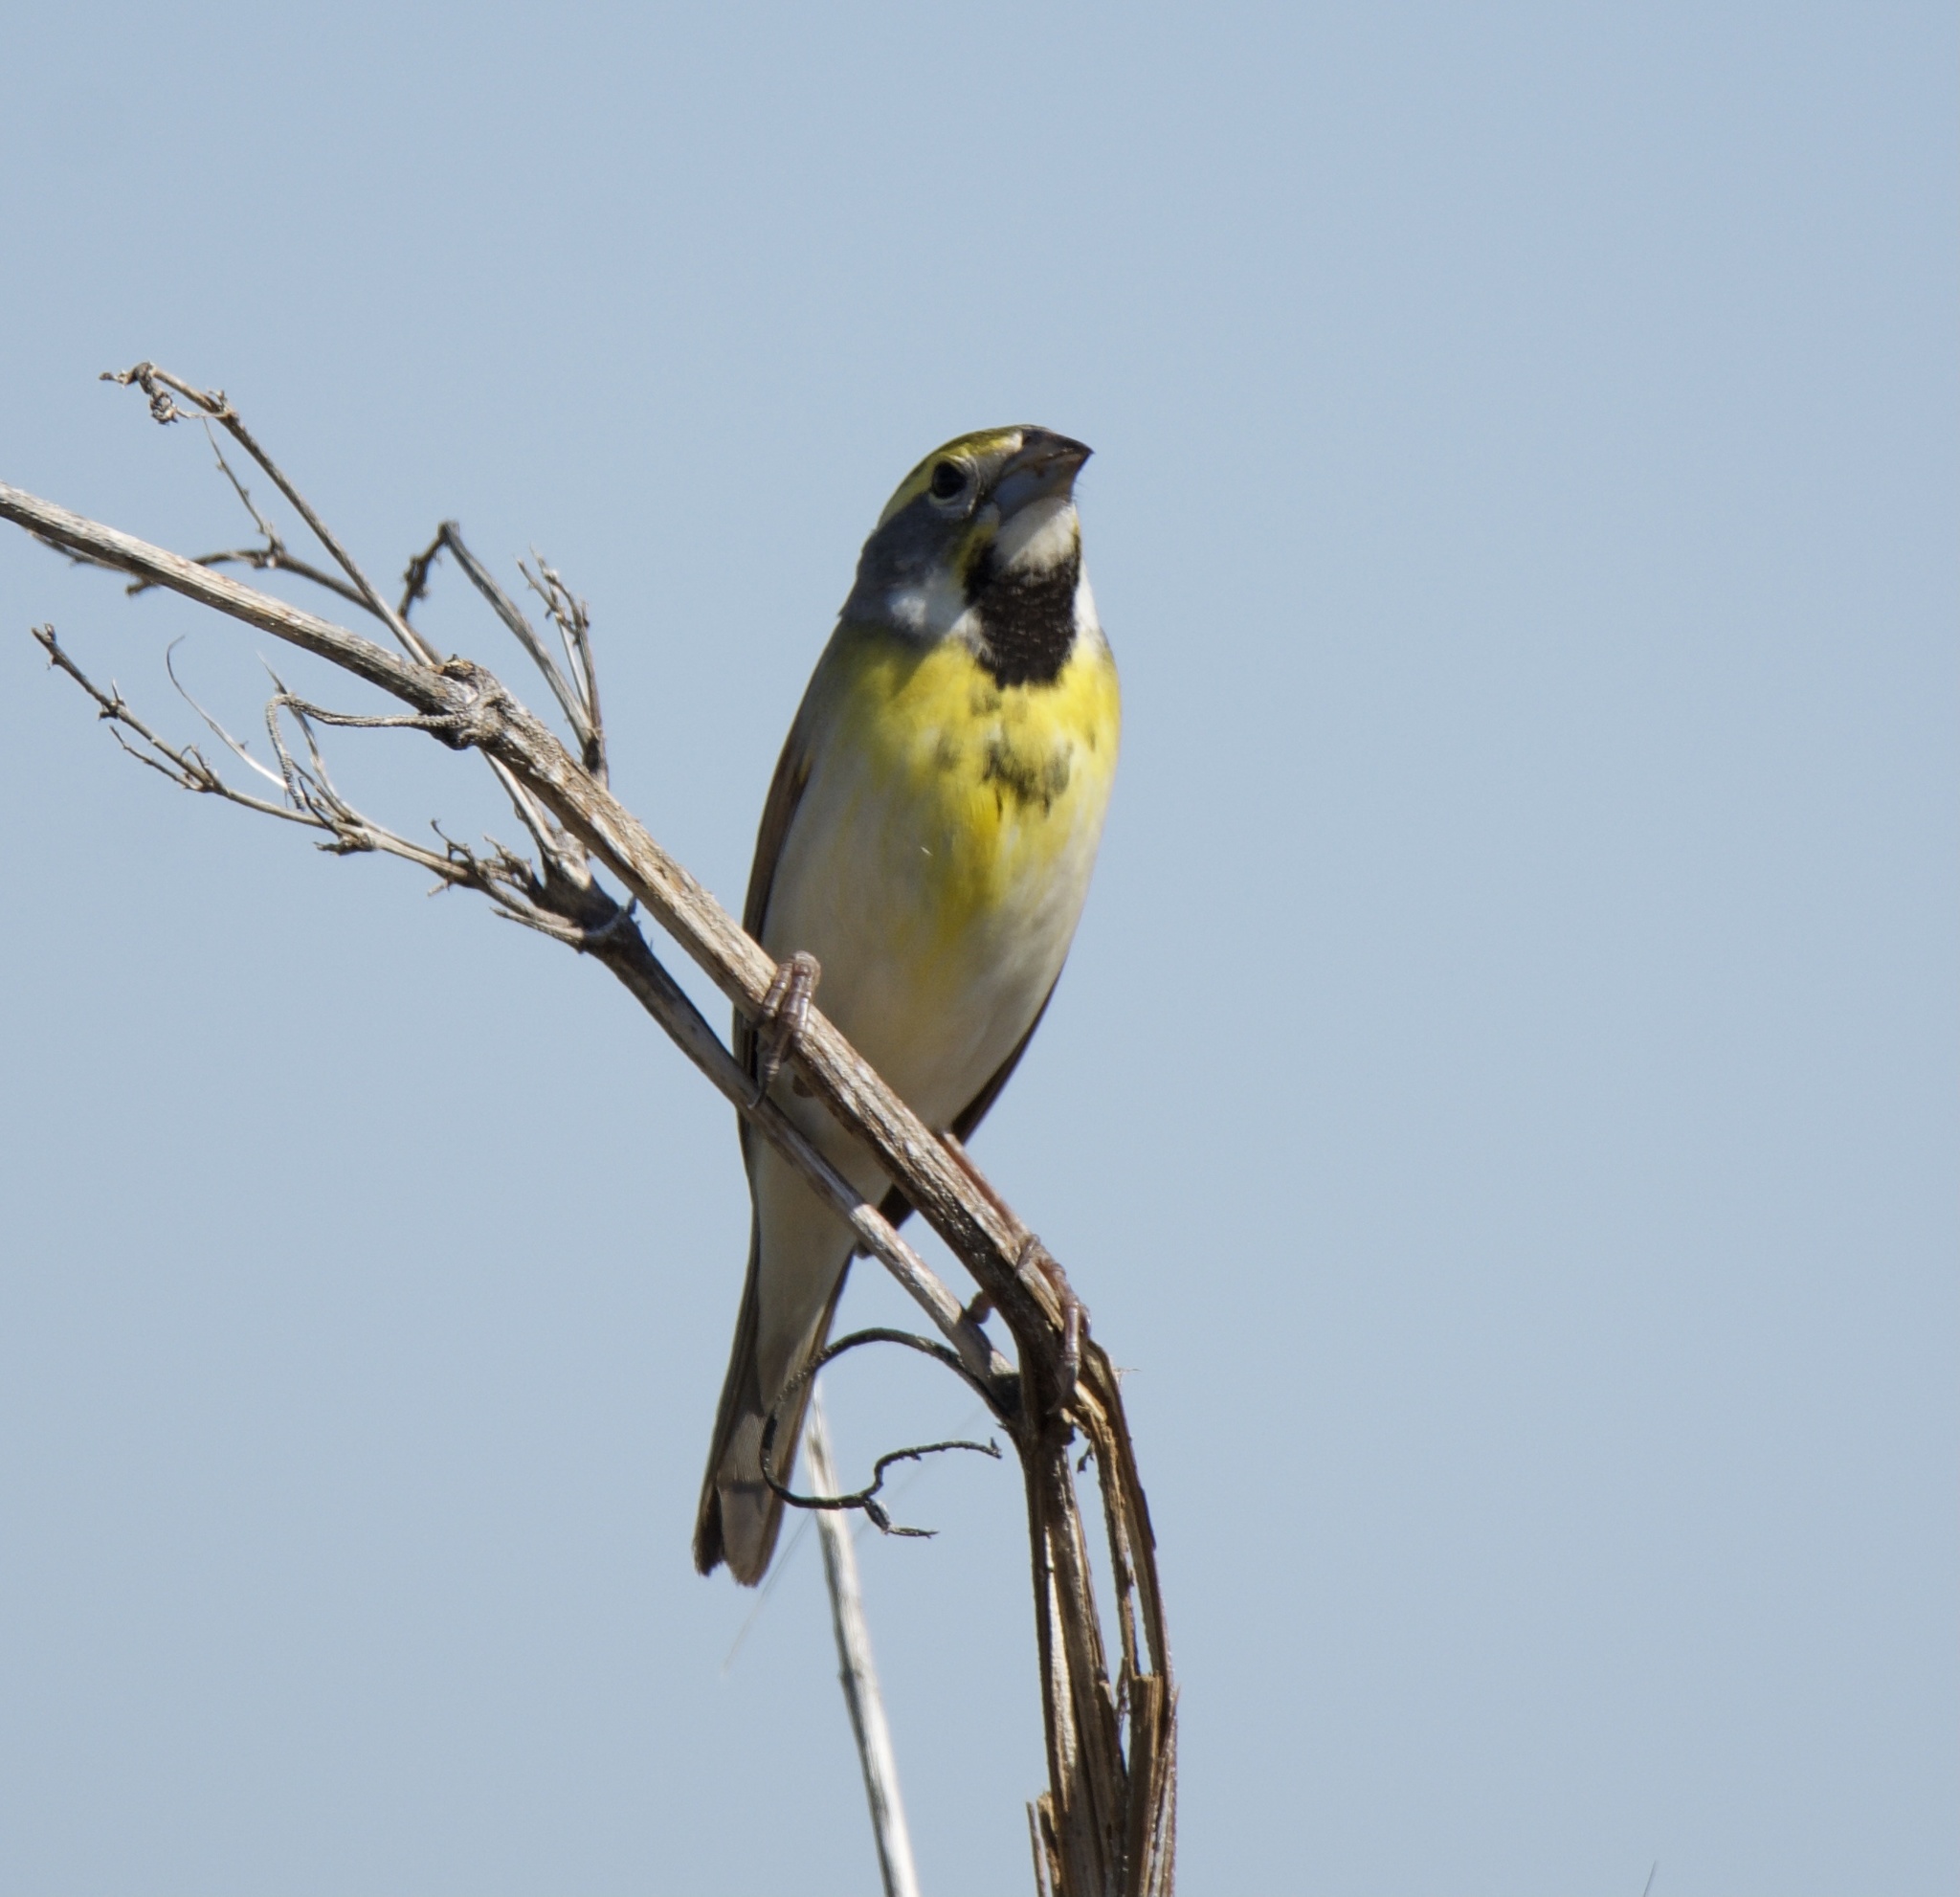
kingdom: Animalia
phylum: Chordata
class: Aves
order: Passeriformes
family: Cardinalidae
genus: Spiza
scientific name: Spiza americana
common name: Dickcissel
